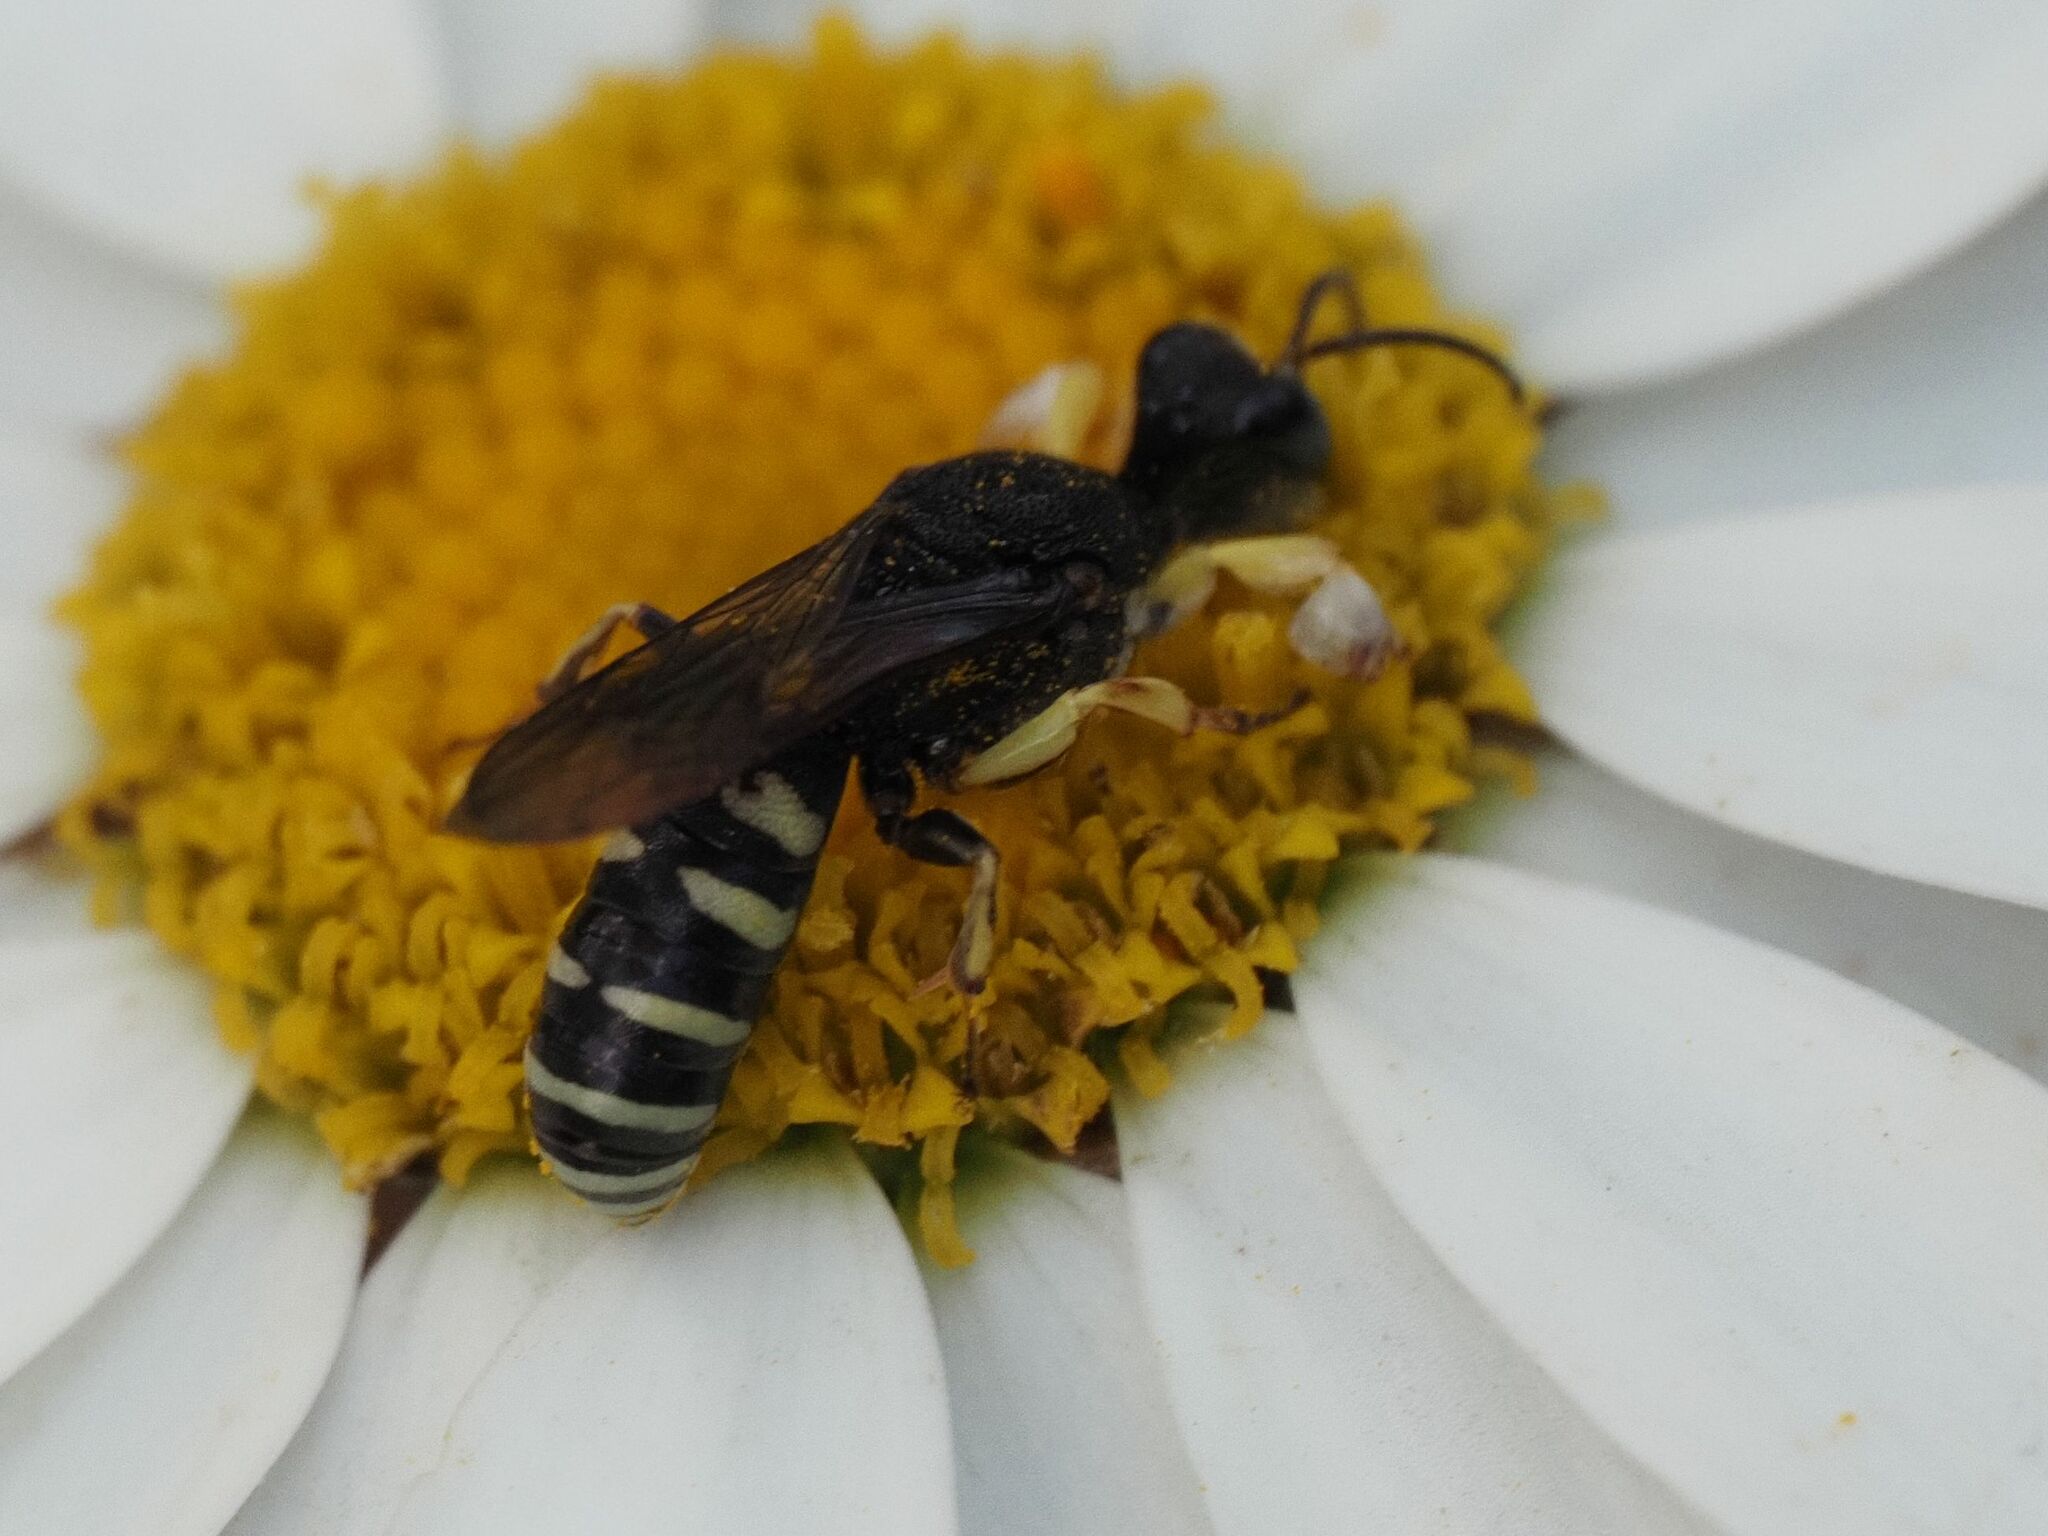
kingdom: Animalia
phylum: Arthropoda
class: Insecta
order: Hymenoptera
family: Crabronidae
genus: Lestica
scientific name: Lestica clypeata
